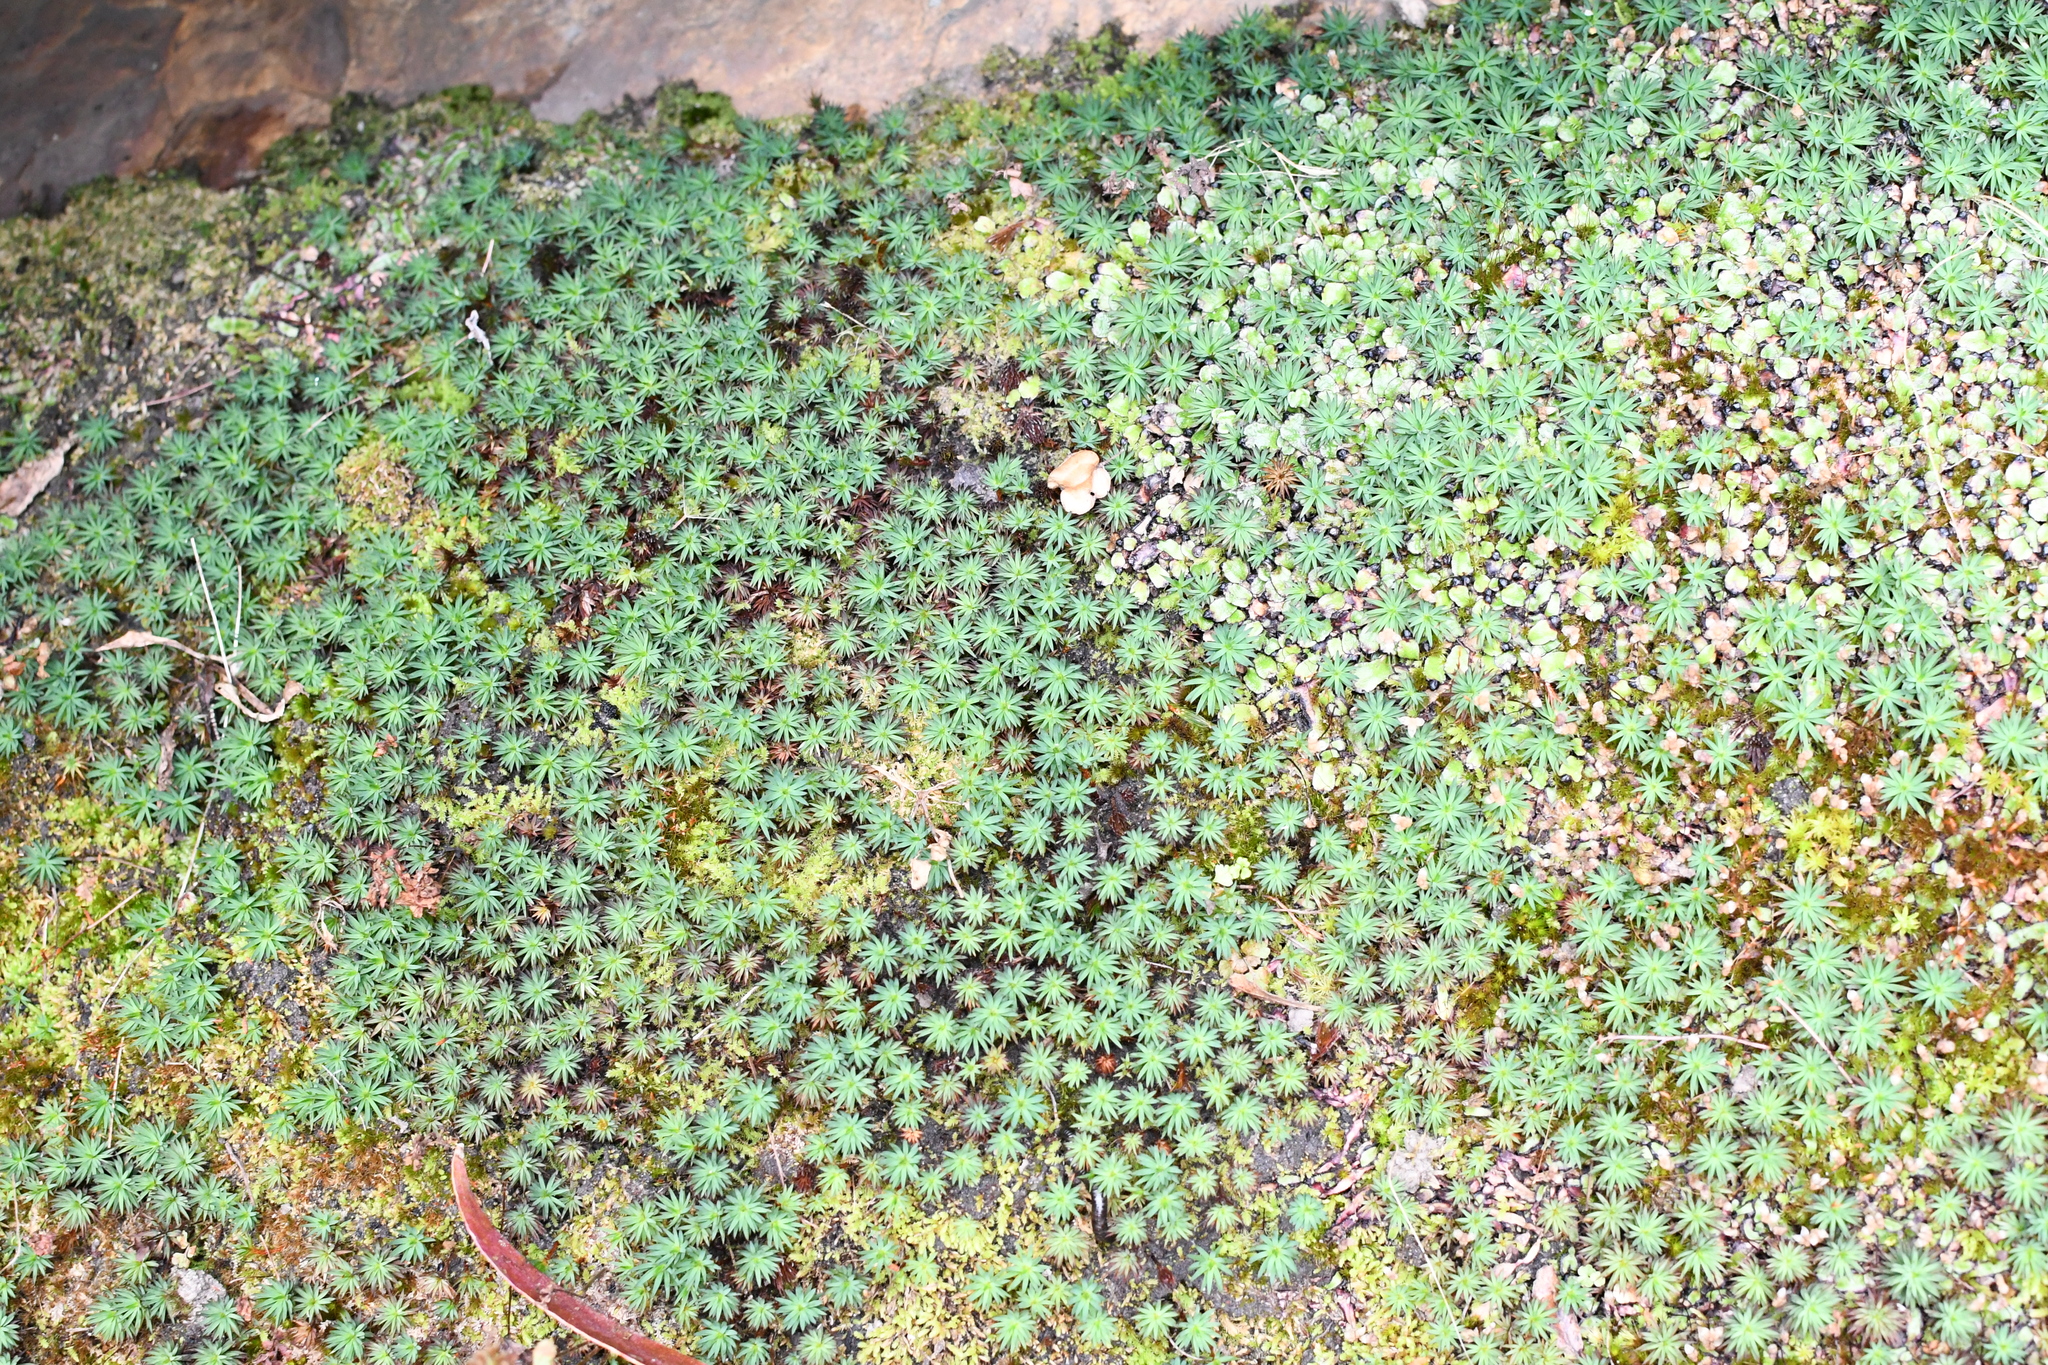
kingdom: Plantae
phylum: Bryophyta
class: Polytrichopsida
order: Polytrichales
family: Polytrichaceae
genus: Dawsonia
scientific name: Dawsonia longiseta
